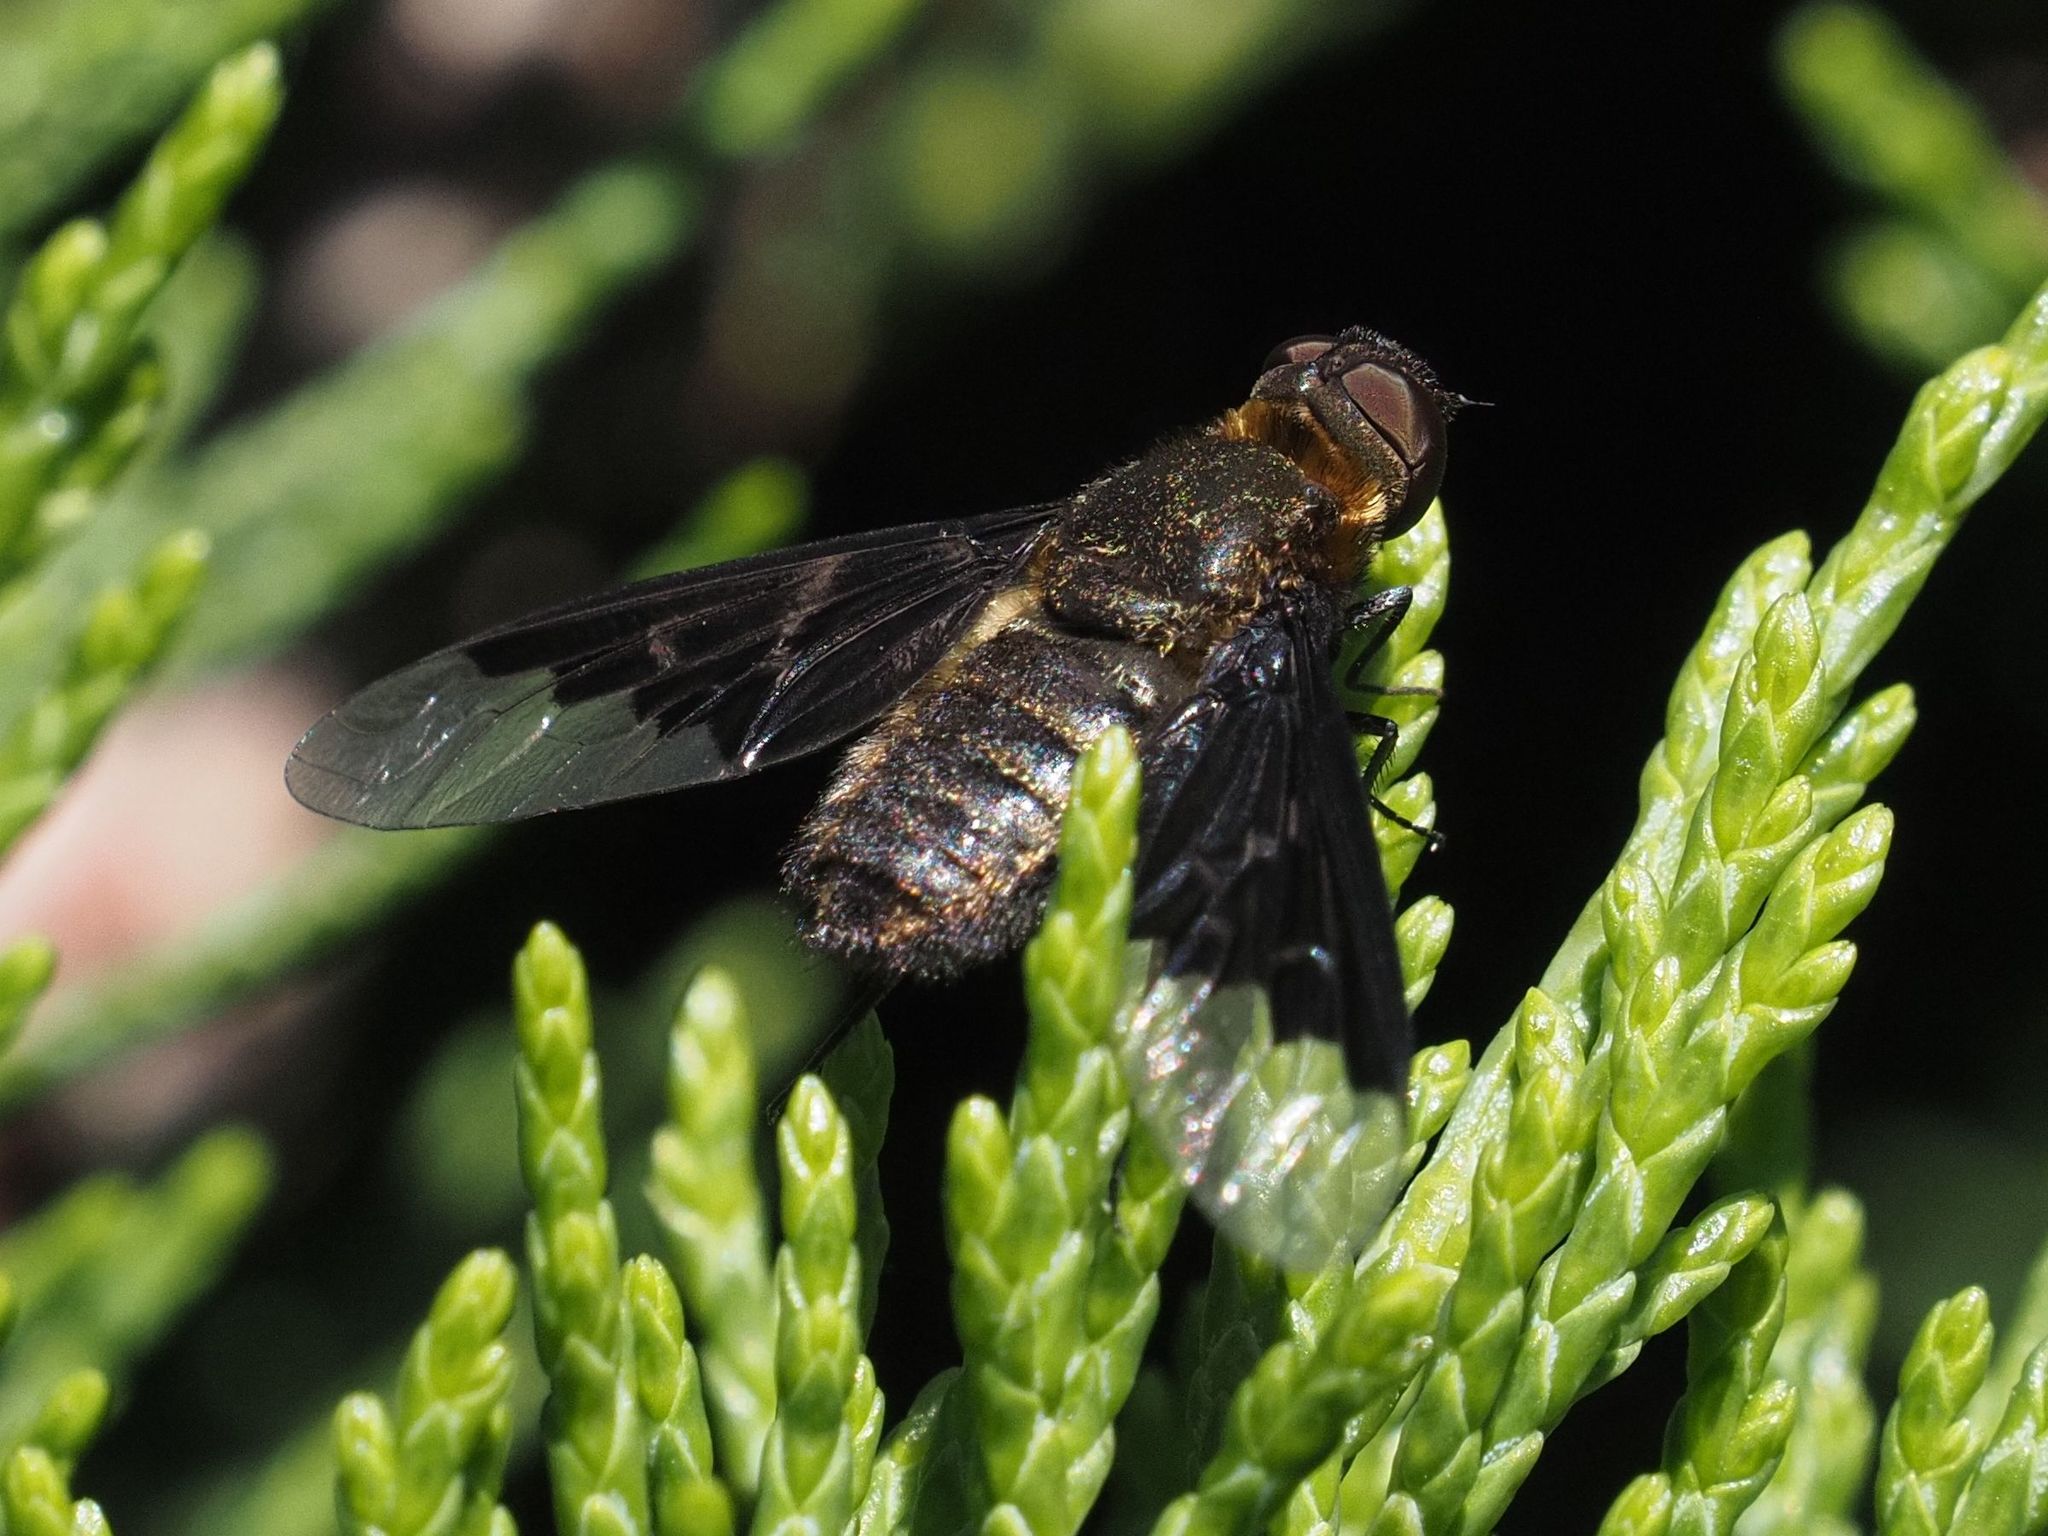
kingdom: Animalia
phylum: Arthropoda
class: Insecta
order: Diptera
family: Bombyliidae
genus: Hemipenthes
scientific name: Hemipenthes morio
